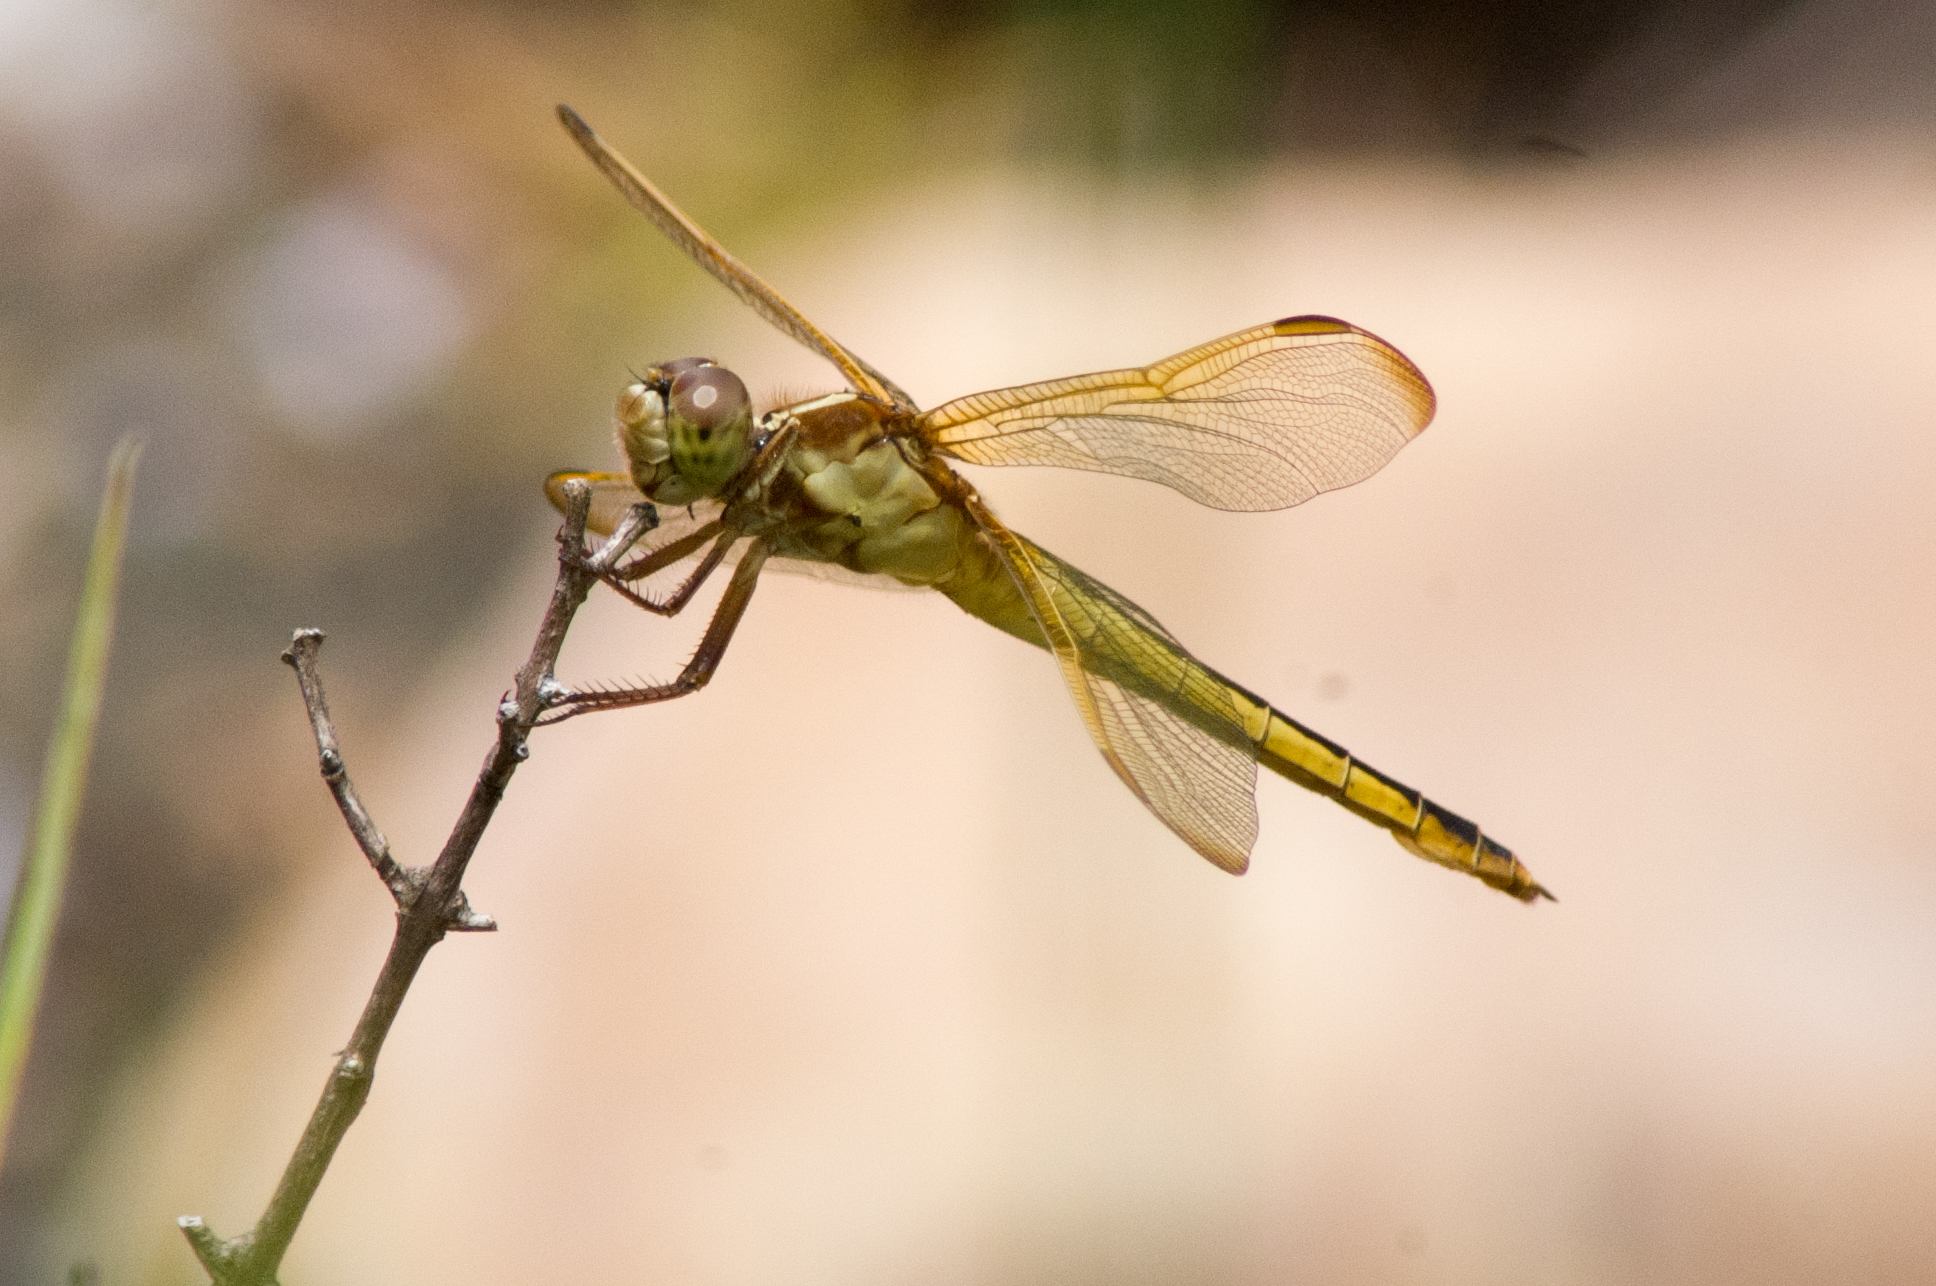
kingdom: Animalia
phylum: Arthropoda
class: Insecta
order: Odonata
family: Libellulidae
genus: Libellula
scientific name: Libellula needhami
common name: Needham's skimmer
